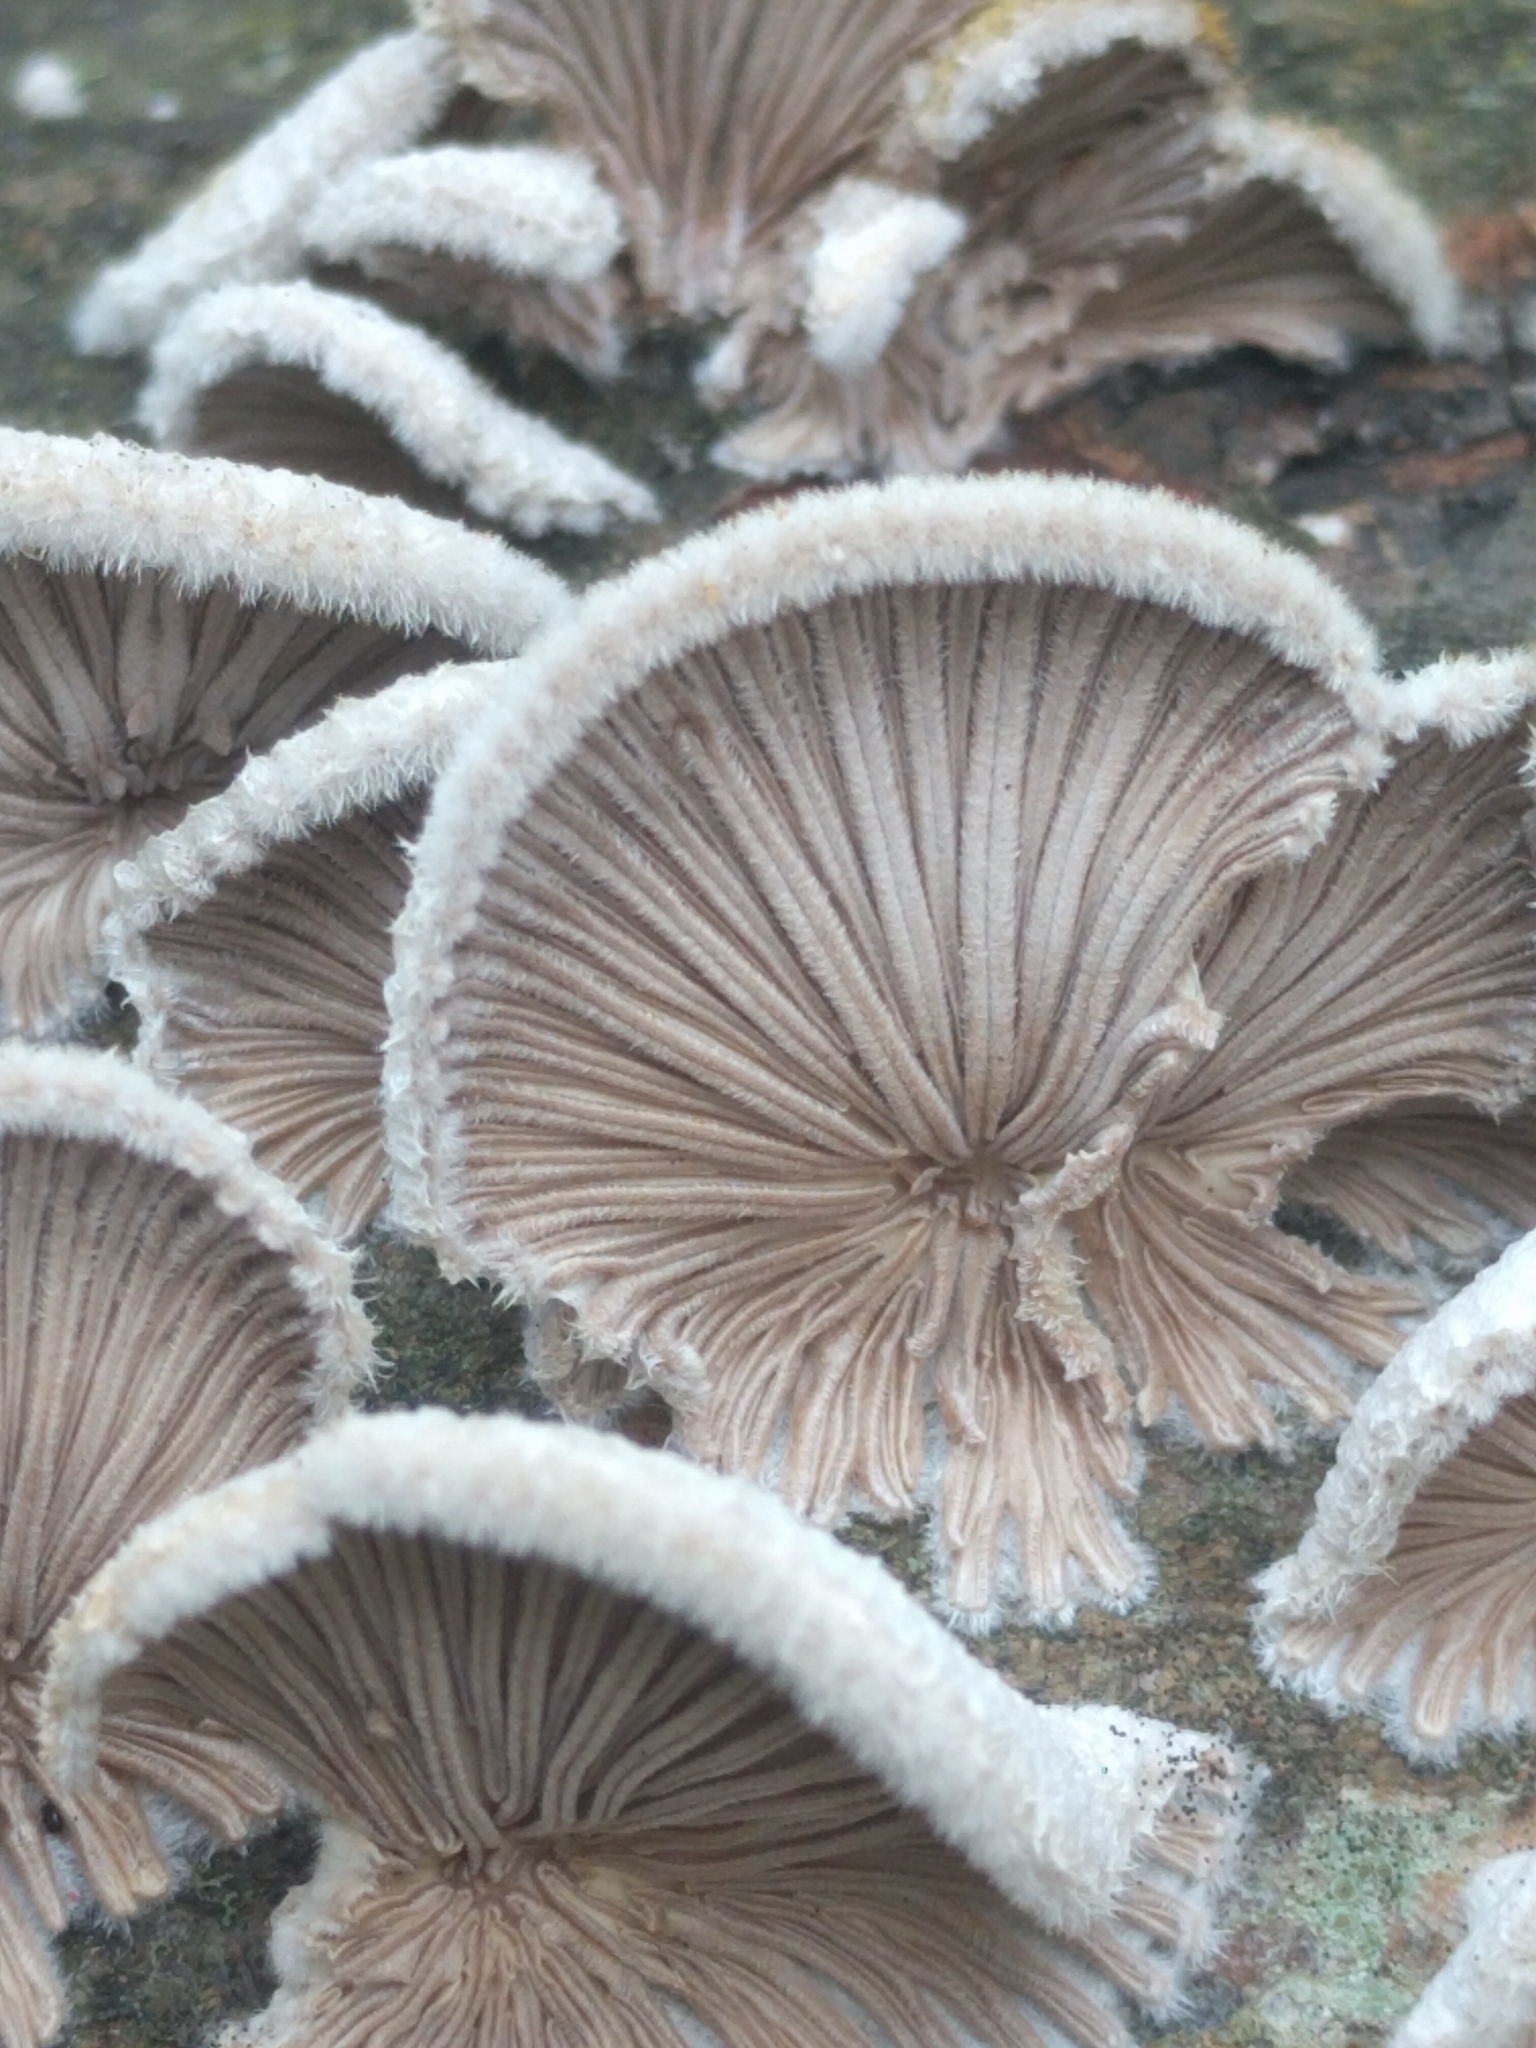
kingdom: Fungi
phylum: Basidiomycota
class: Agaricomycetes
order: Agaricales
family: Schizophyllaceae
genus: Schizophyllum
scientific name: Schizophyllum commune
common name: Common porecrust
